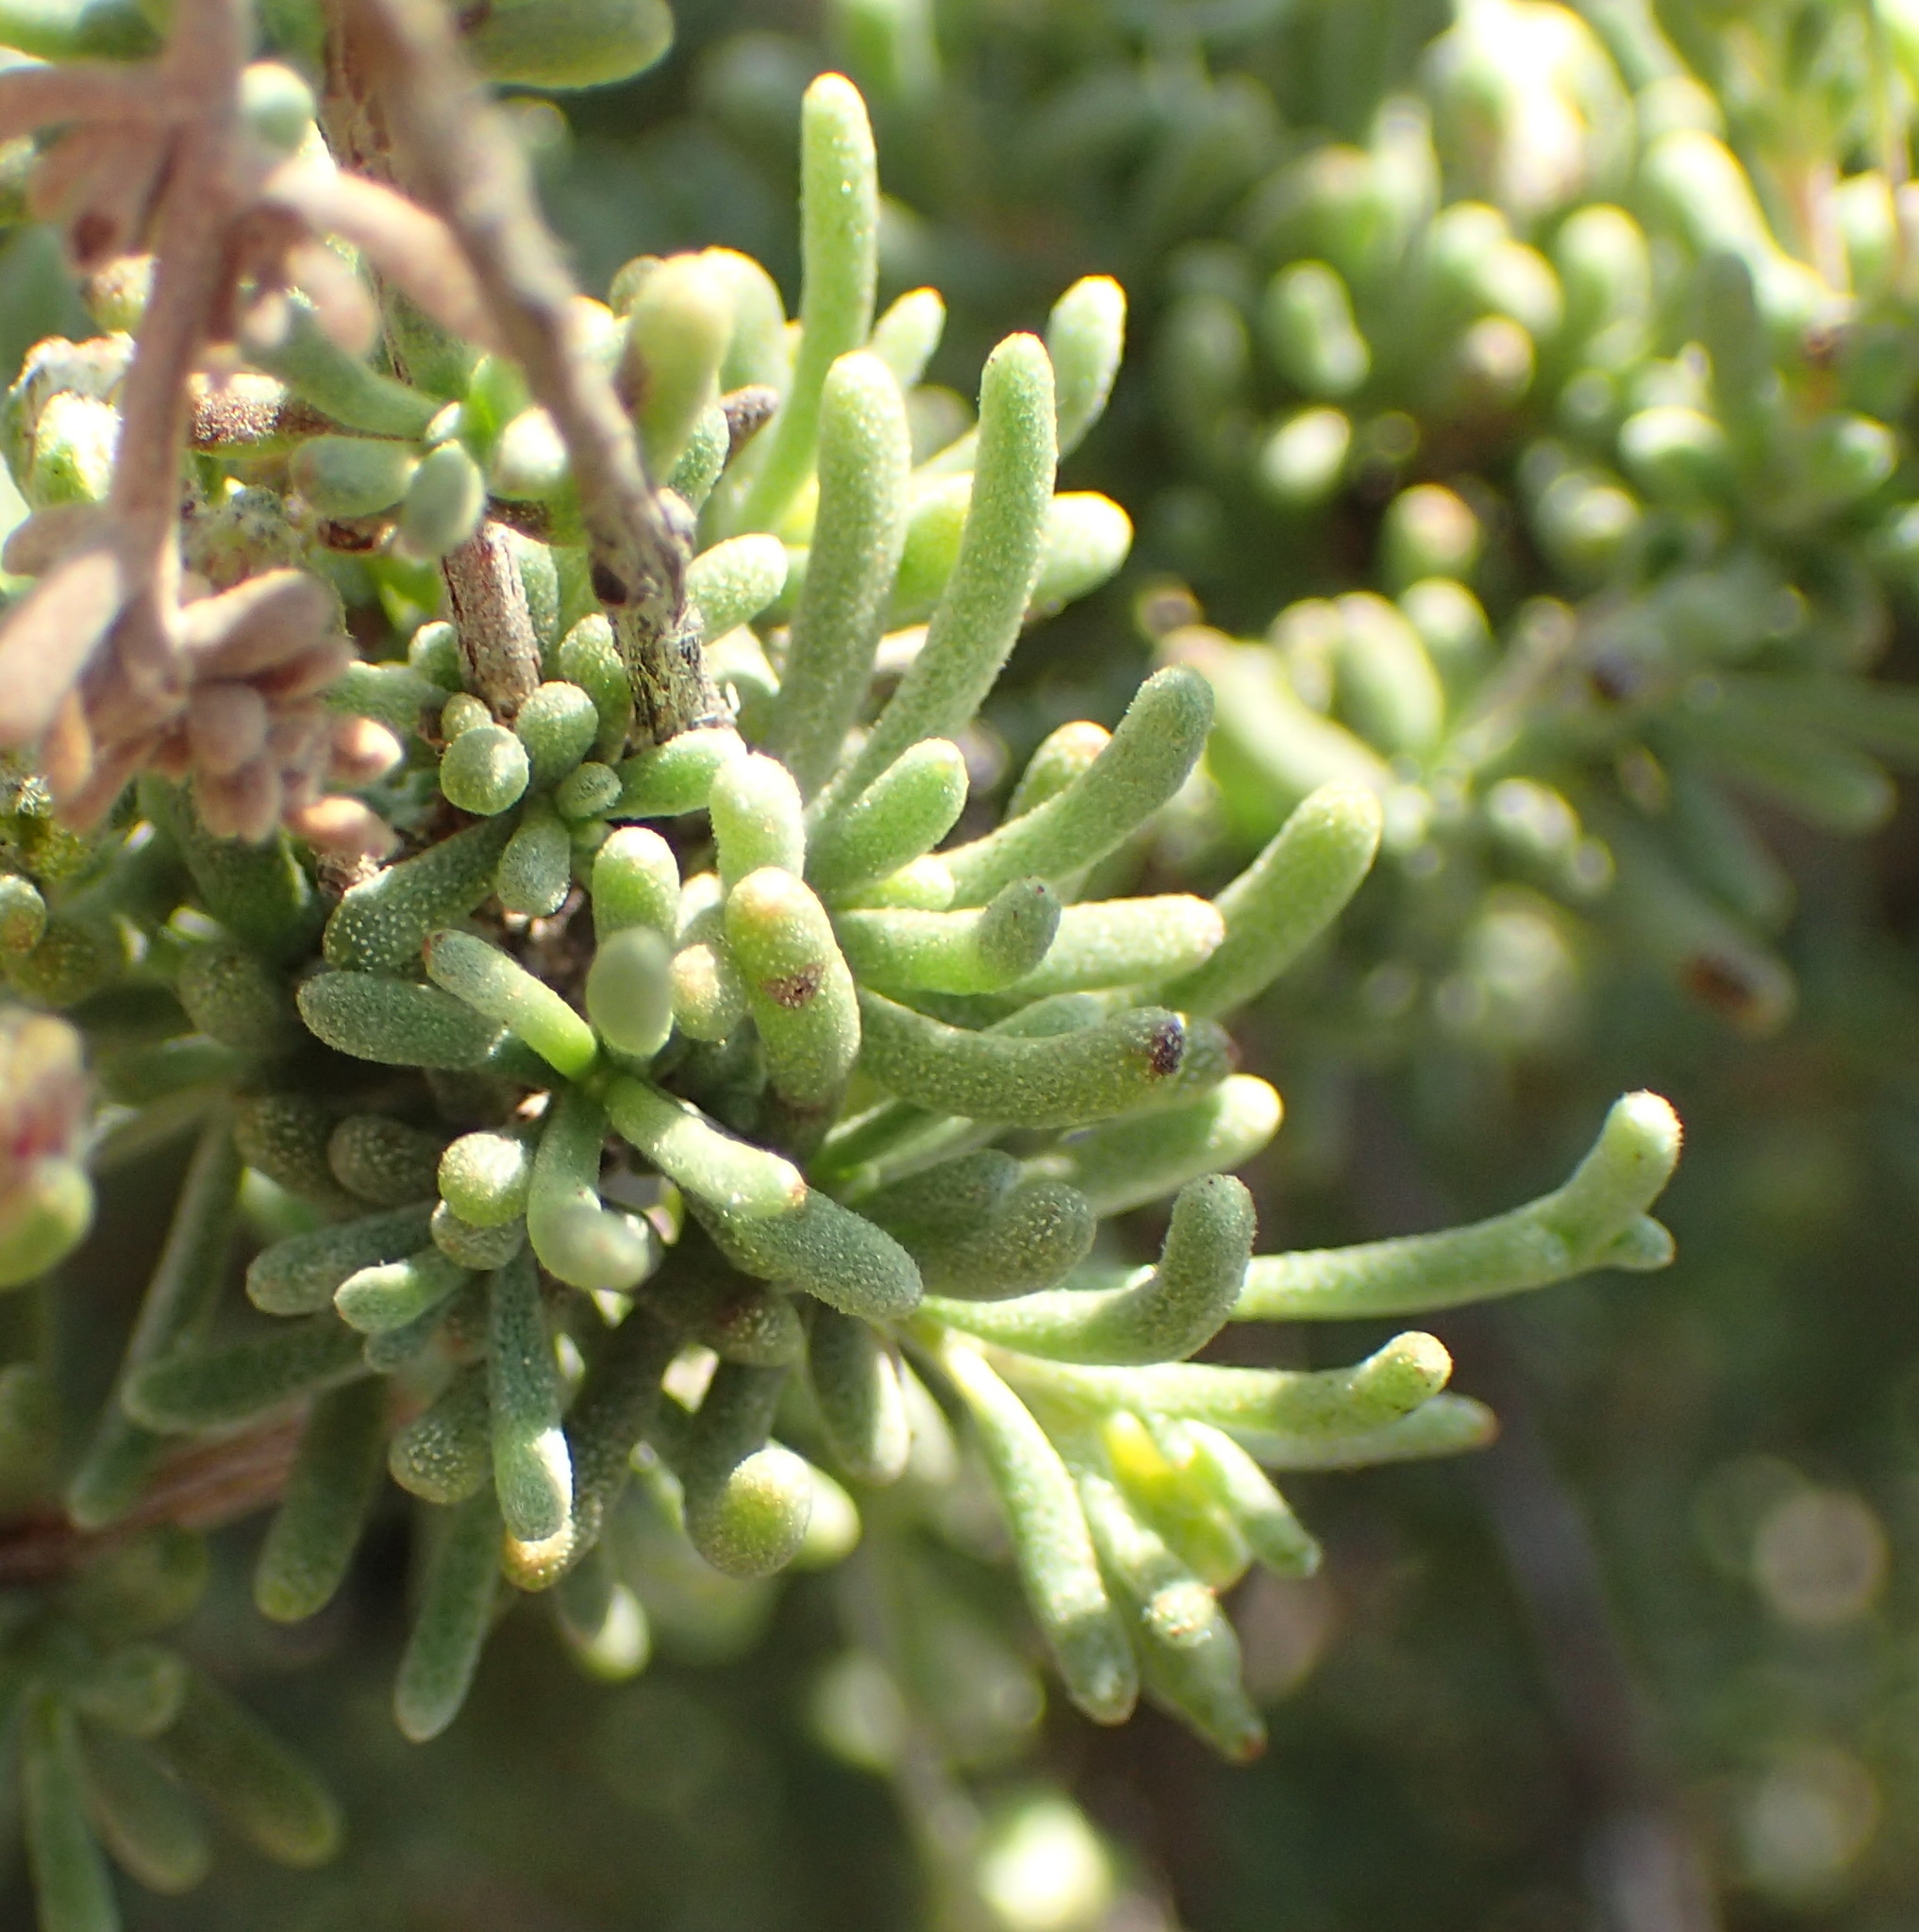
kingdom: Plantae
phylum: Tracheophyta
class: Magnoliopsida
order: Asterales
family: Asteraceae
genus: Eriocephalus
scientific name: Eriocephalus africanus
